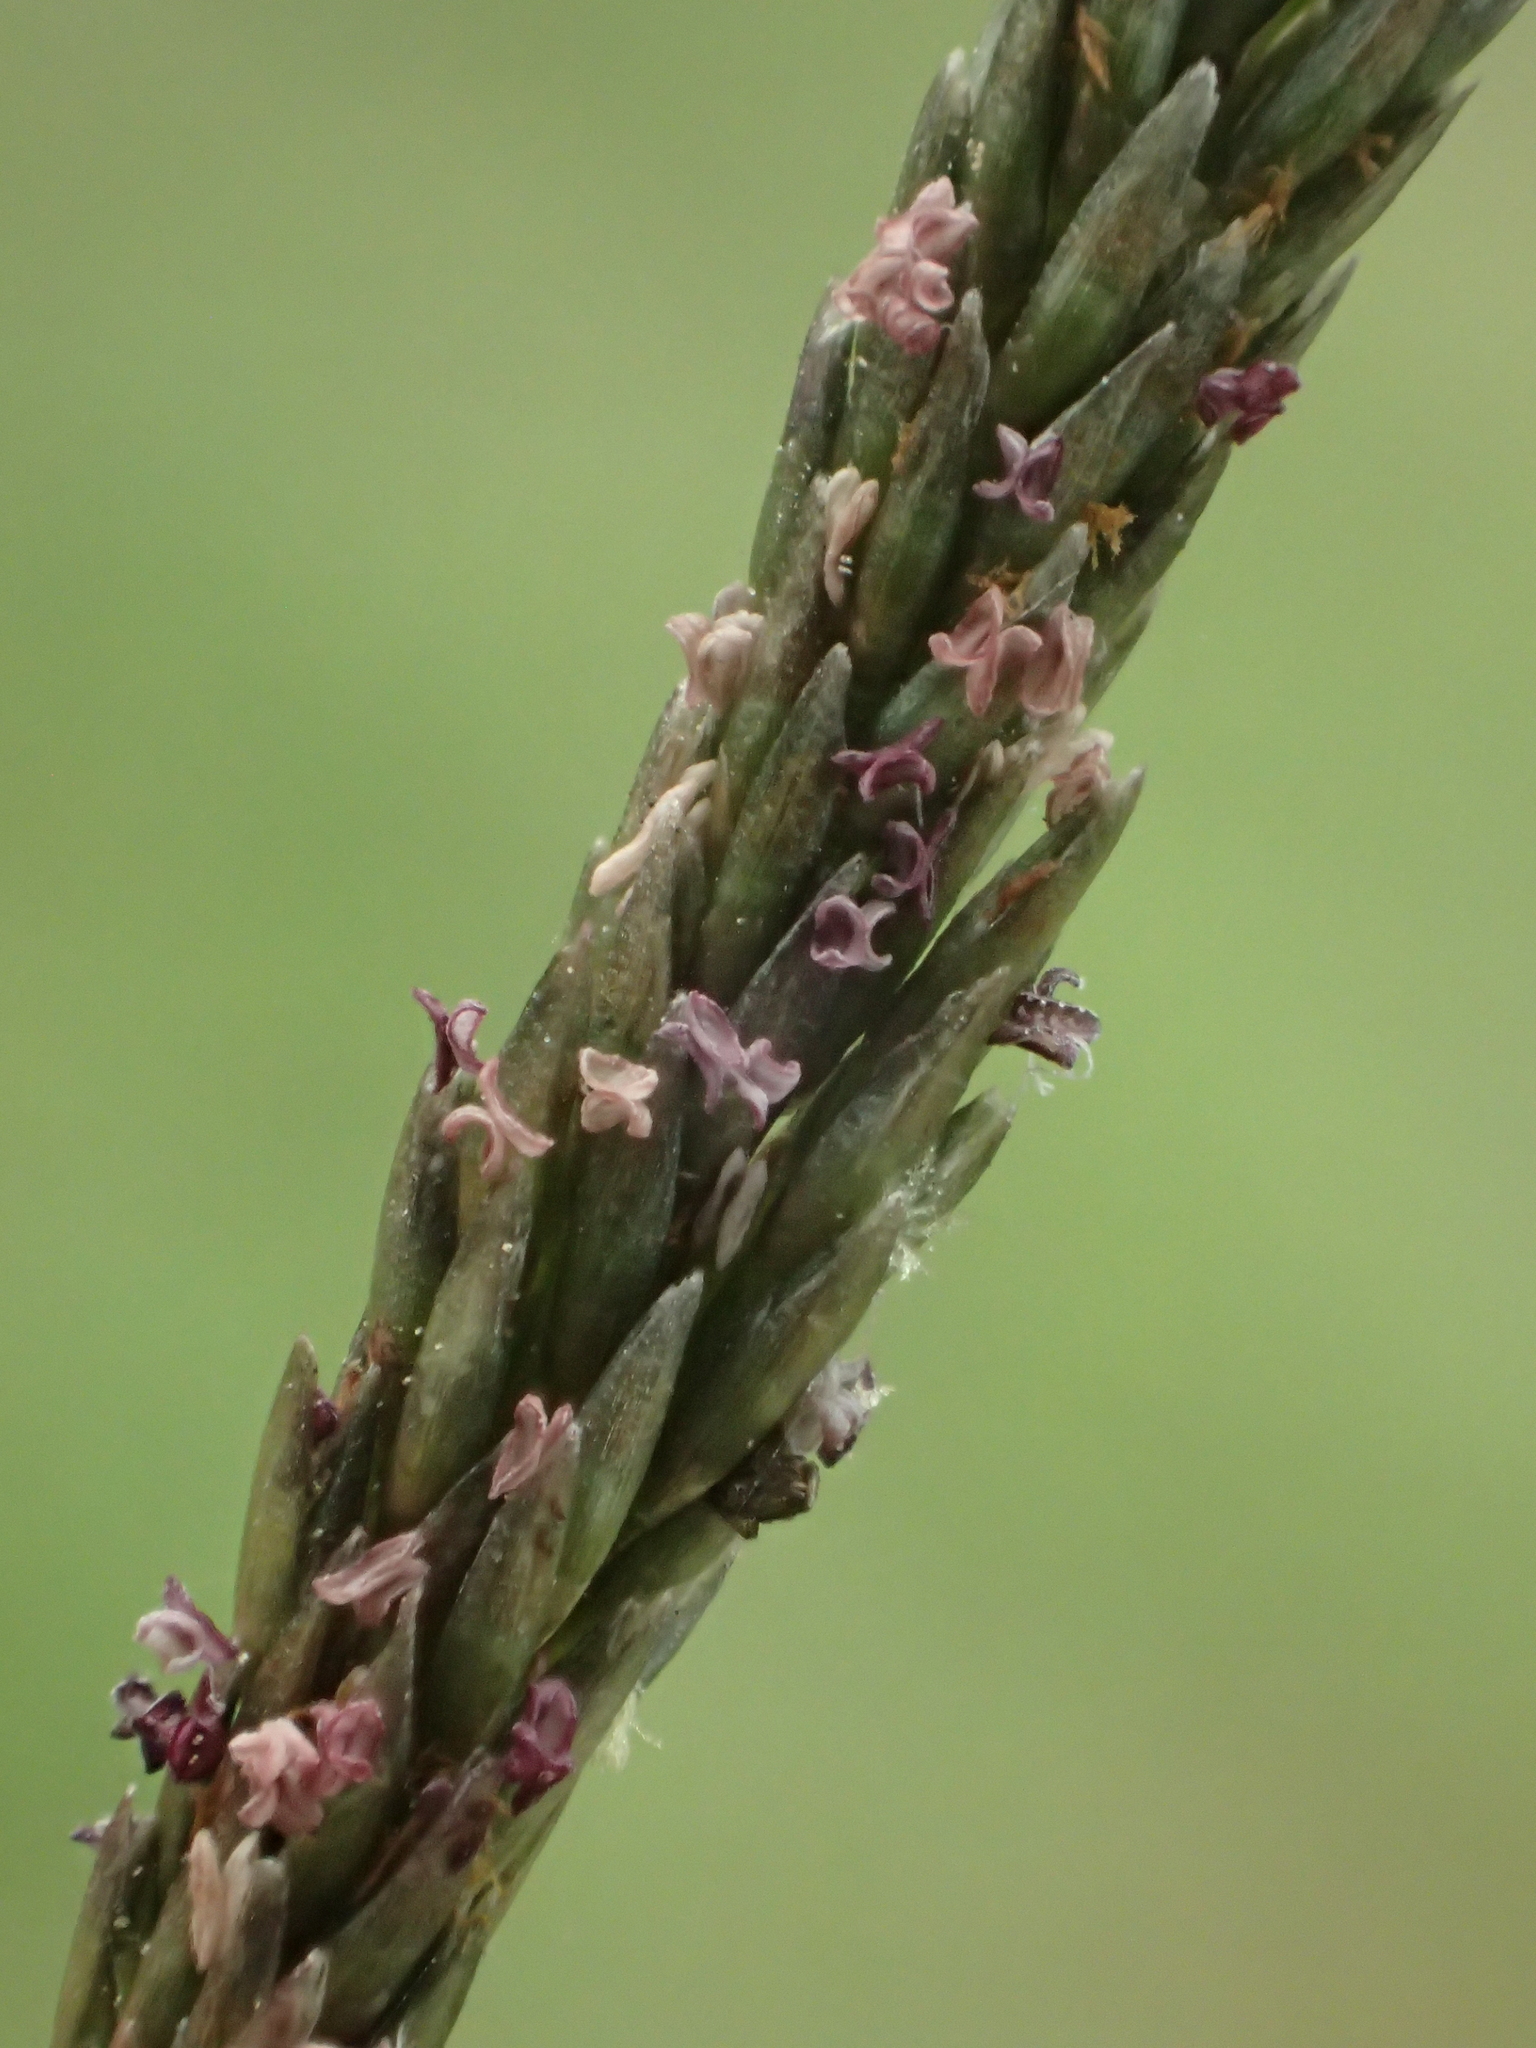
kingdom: Plantae
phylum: Tracheophyta
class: Liliopsida
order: Poales
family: Poaceae
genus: Sporobolus
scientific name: Sporobolus indicus
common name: Smut grass
